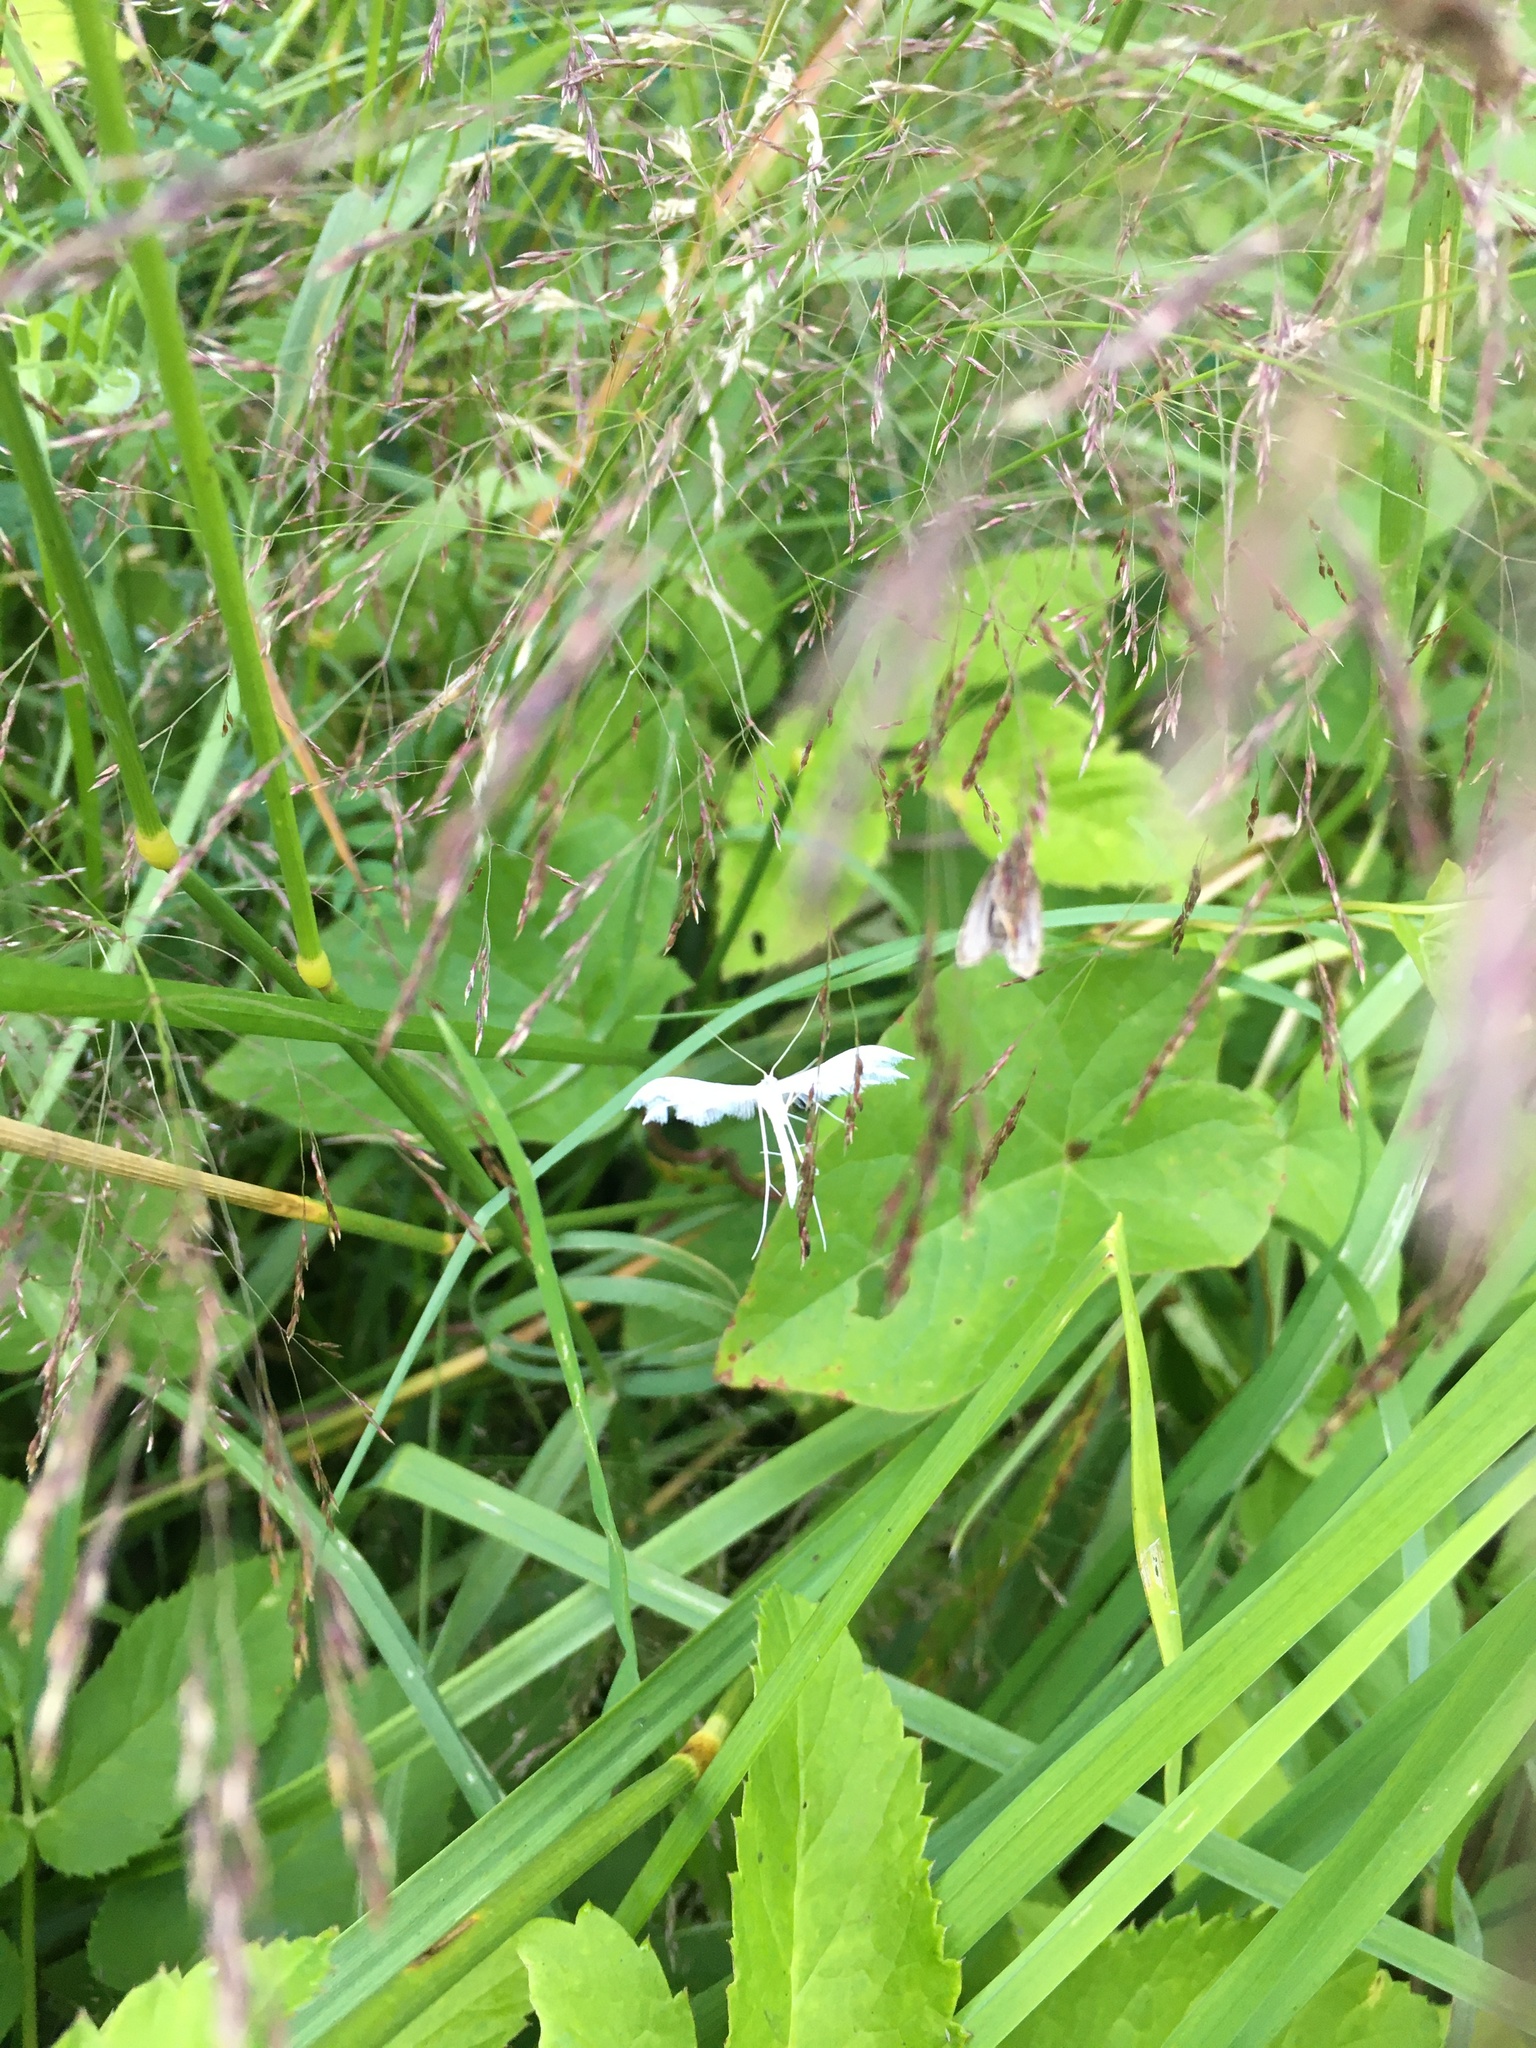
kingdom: Animalia
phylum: Arthropoda
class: Insecta
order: Lepidoptera
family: Pterophoridae
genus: Pterophorus
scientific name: Pterophorus pentadactyla
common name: White plume moth
